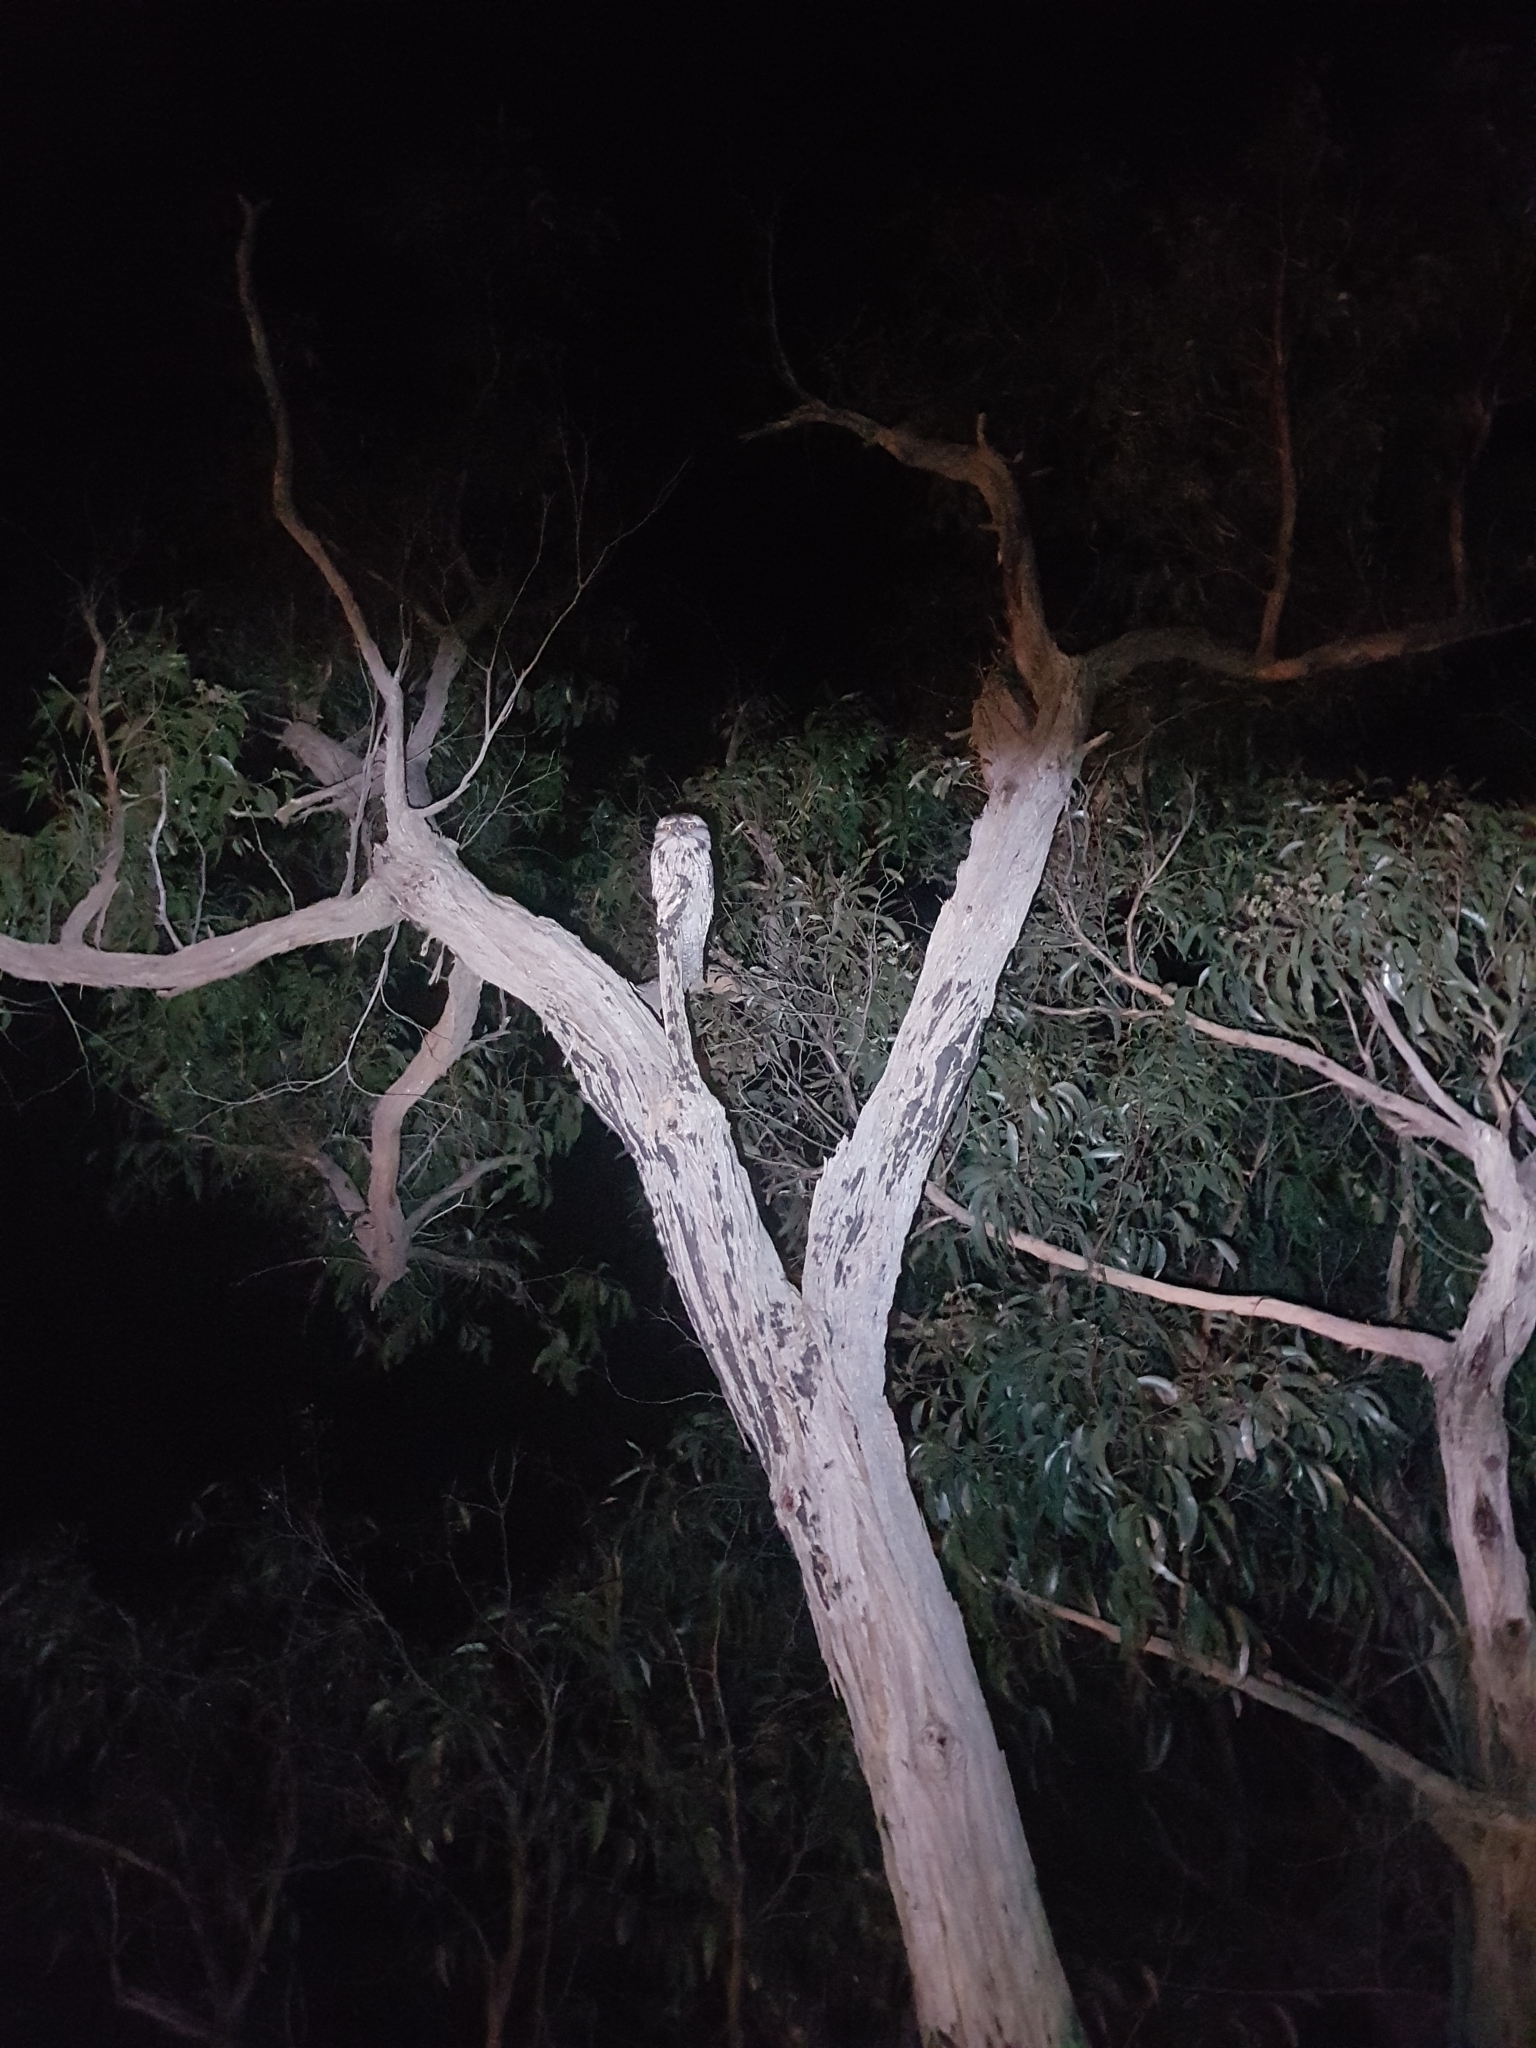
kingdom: Animalia
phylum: Chordata
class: Aves
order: Caprimulgiformes
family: Podargidae
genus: Podargus
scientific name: Podargus strigoides
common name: Tawny frogmouth
